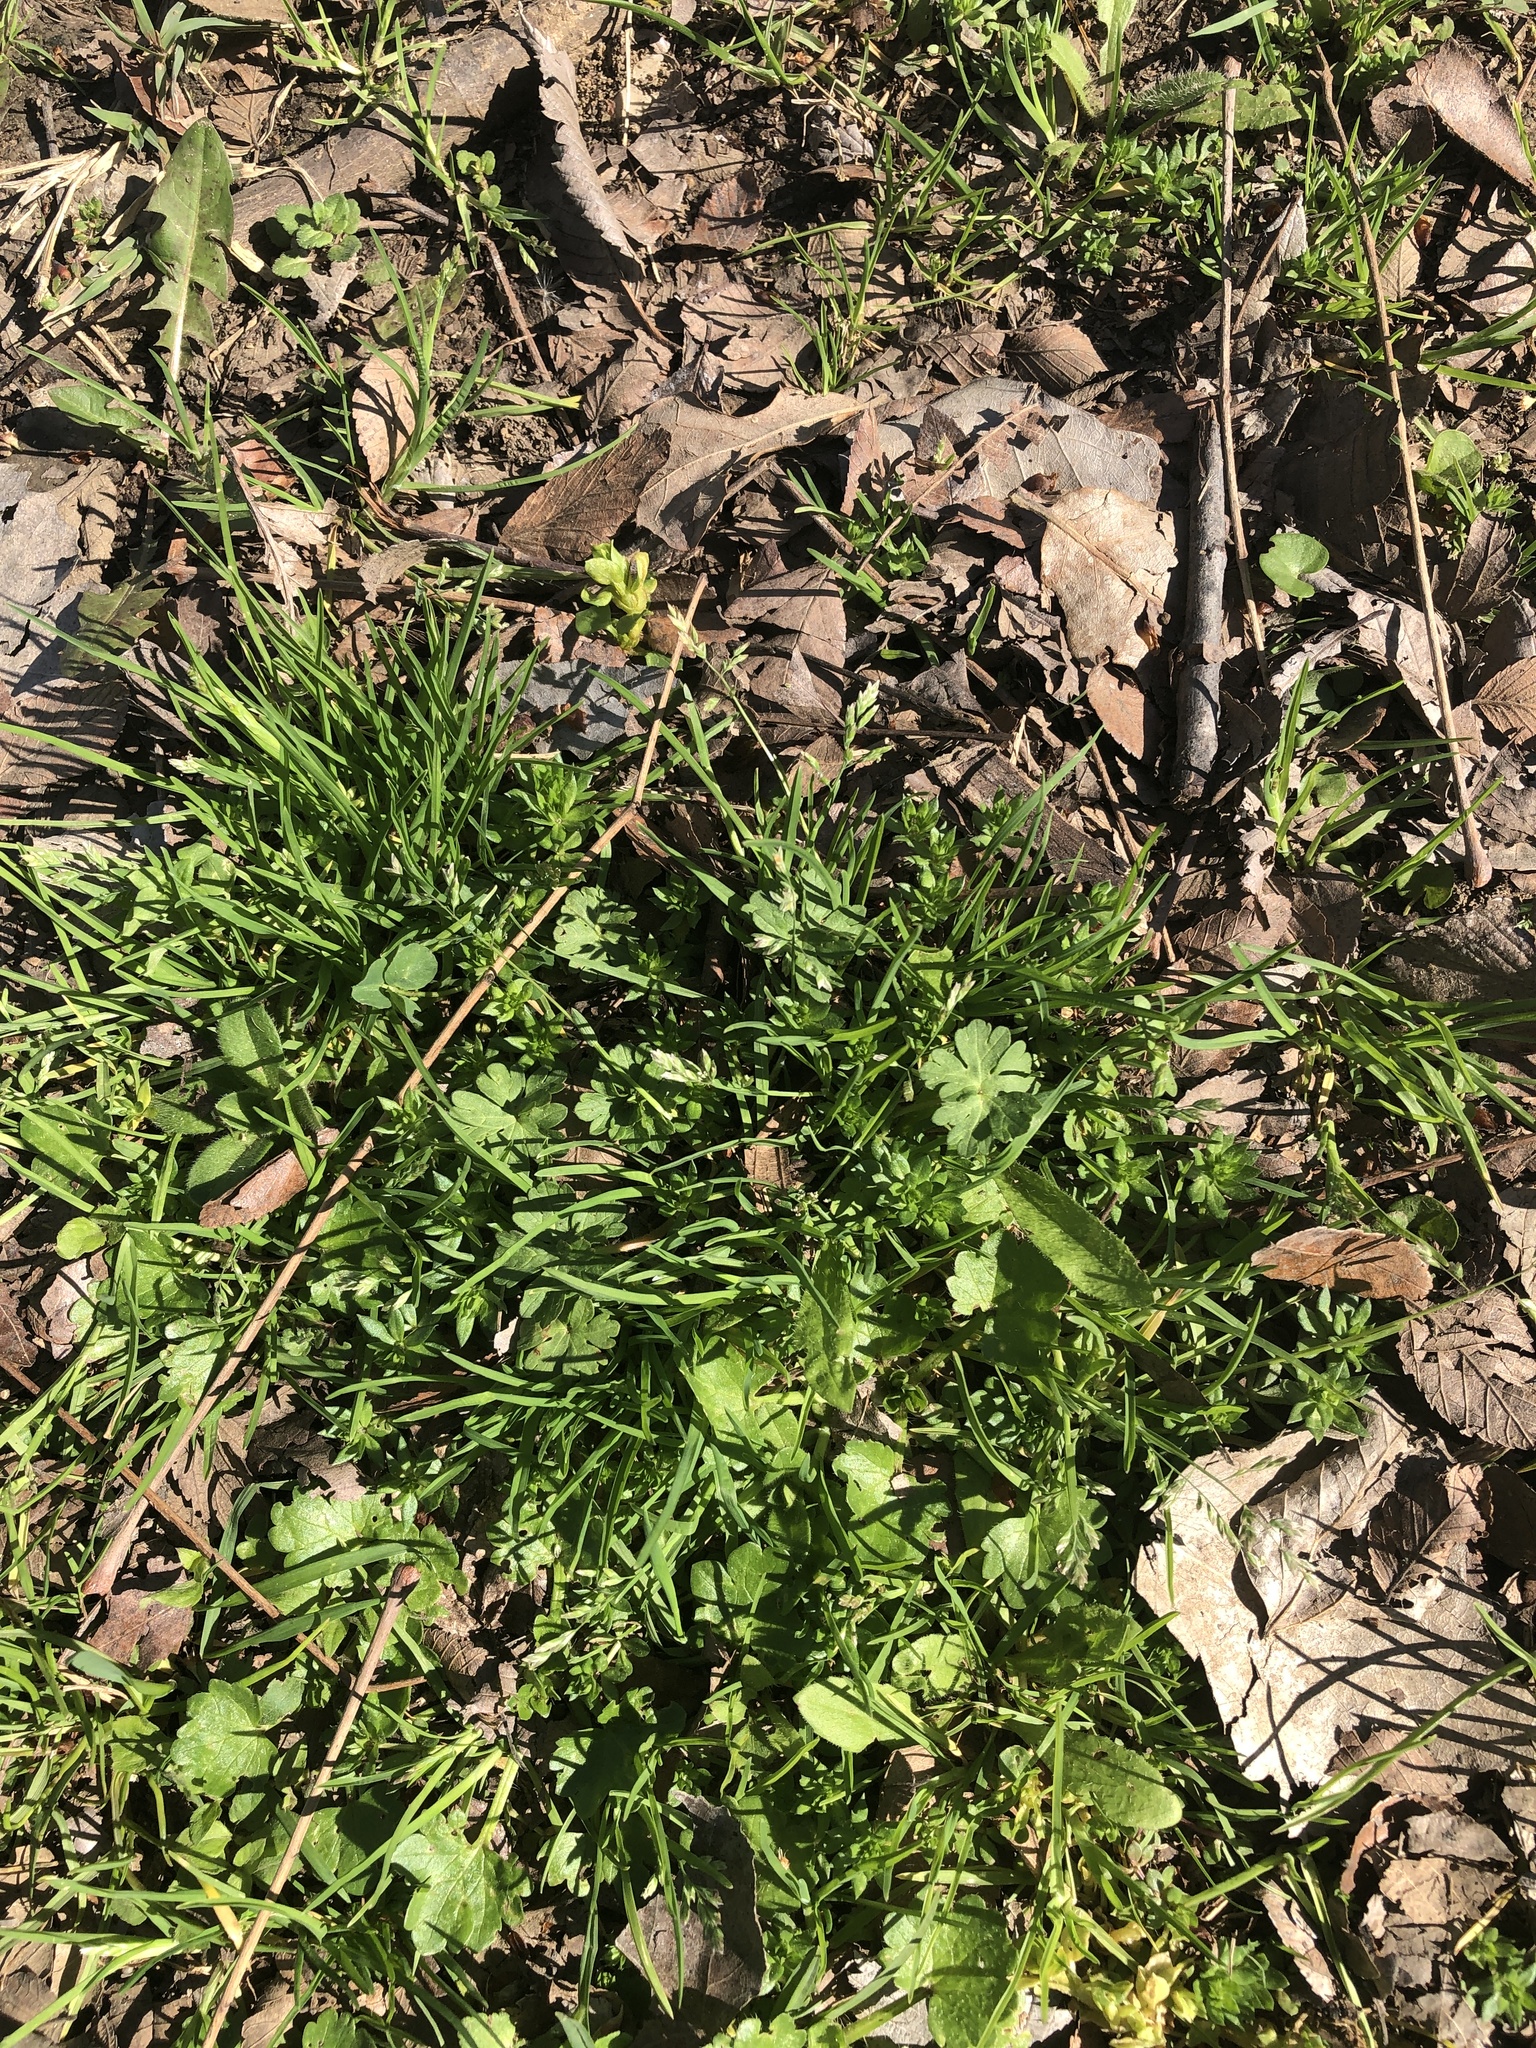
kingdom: Plantae
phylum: Tracheophyta
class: Liliopsida
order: Poales
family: Poaceae
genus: Poa
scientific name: Poa annua
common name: Annual bluegrass
